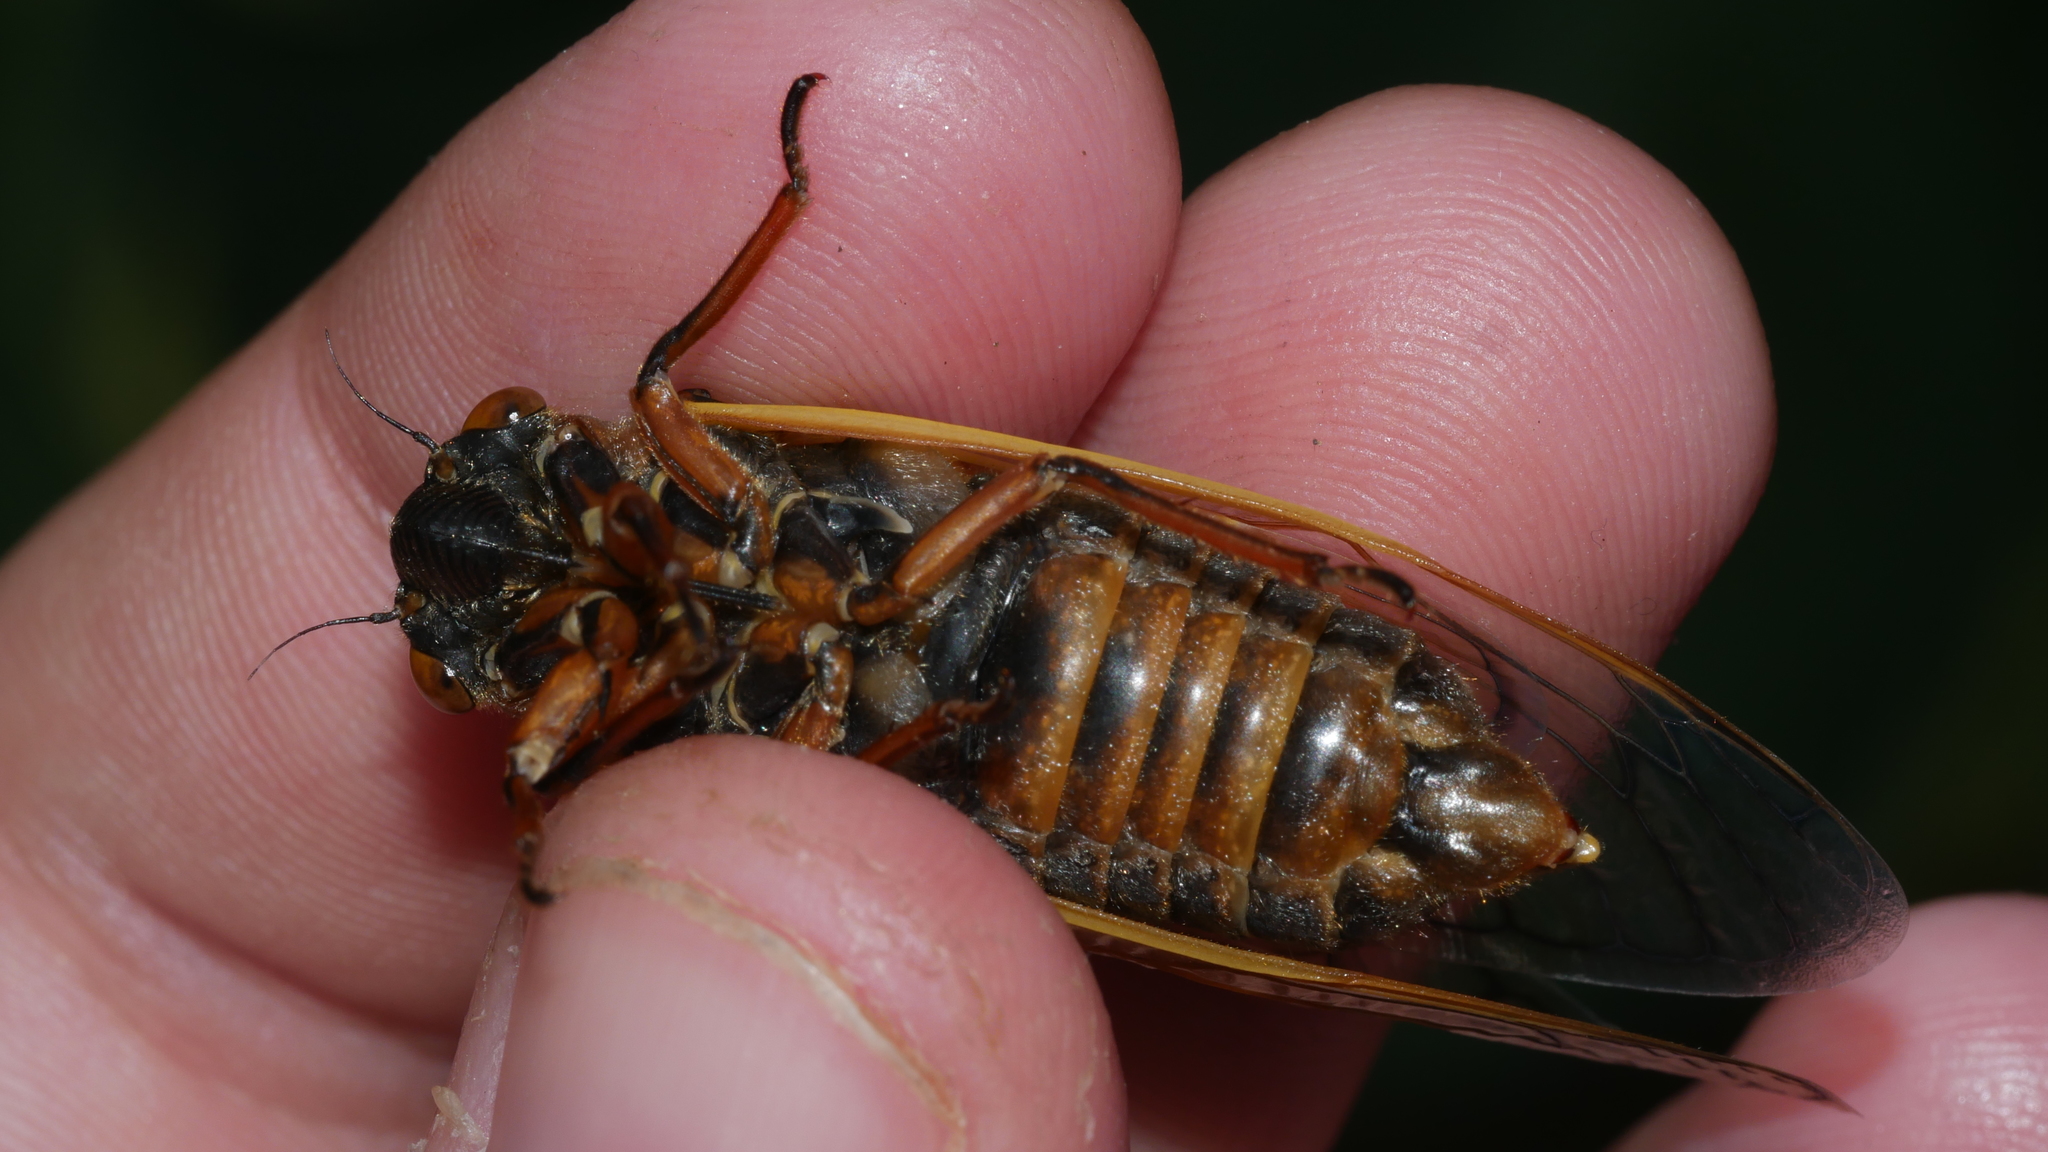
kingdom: Animalia
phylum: Arthropoda
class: Insecta
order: Hemiptera
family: Cicadidae
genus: Magicicada
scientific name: Magicicada septendecim
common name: Periodical cicada
